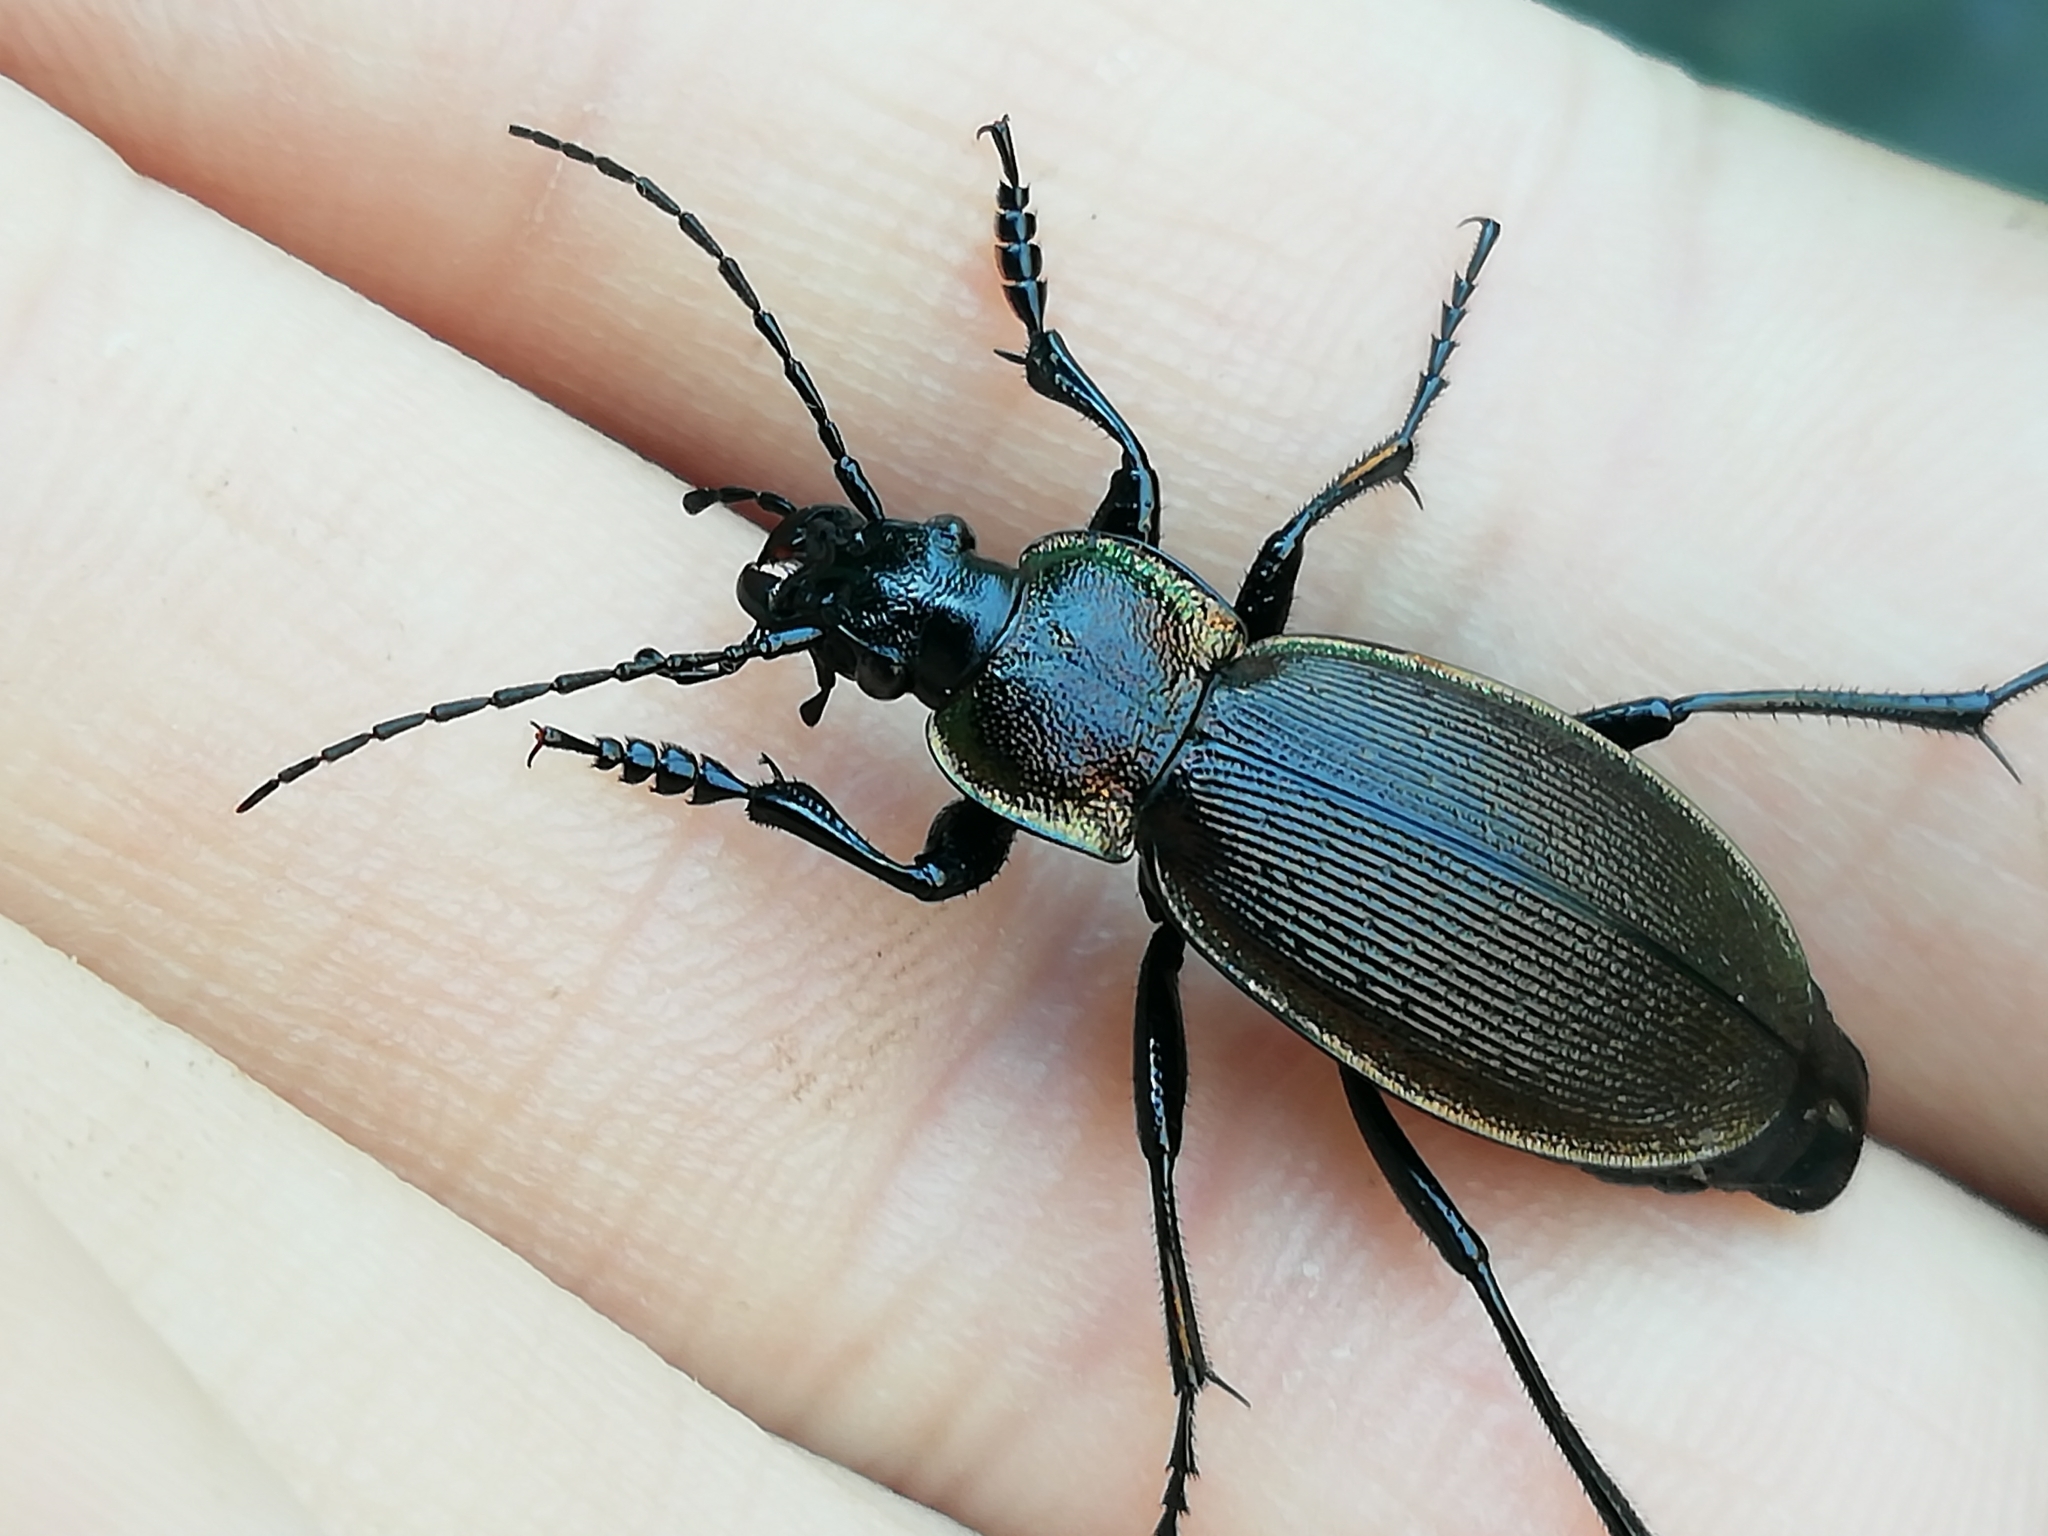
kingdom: Animalia
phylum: Arthropoda
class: Insecta
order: Coleoptera
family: Carabidae
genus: Carabus
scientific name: Carabus regalis
